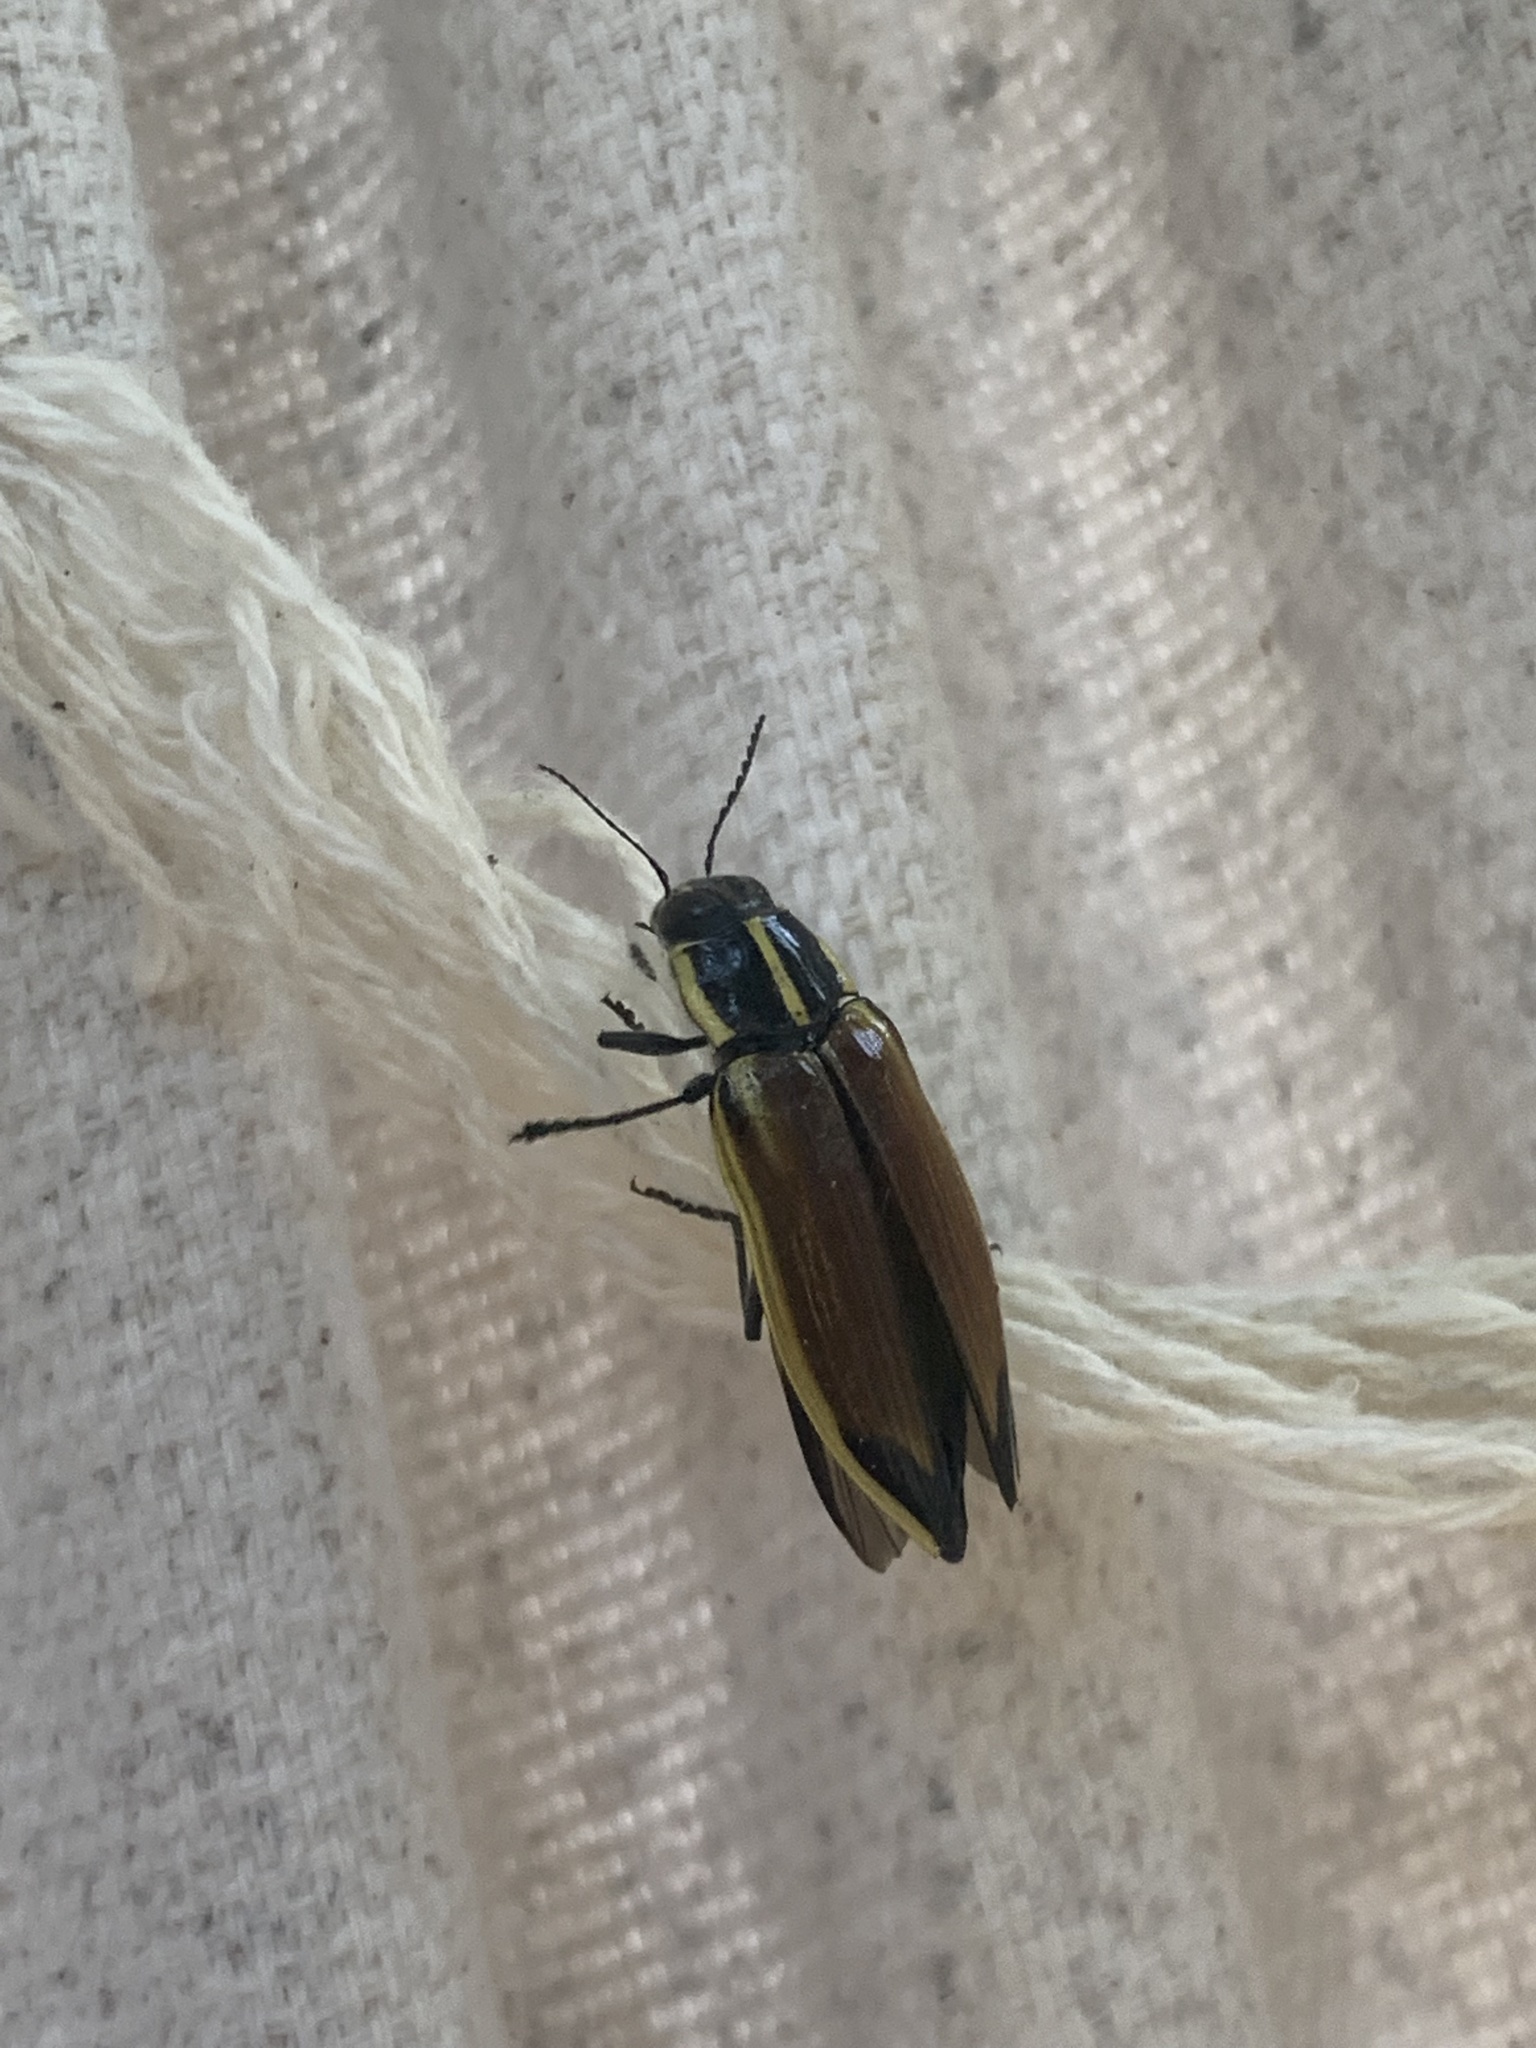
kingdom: Animalia
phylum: Arthropoda
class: Insecta
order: Coleoptera
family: Buprestidae
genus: Epistomentis
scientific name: Epistomentis pictus
